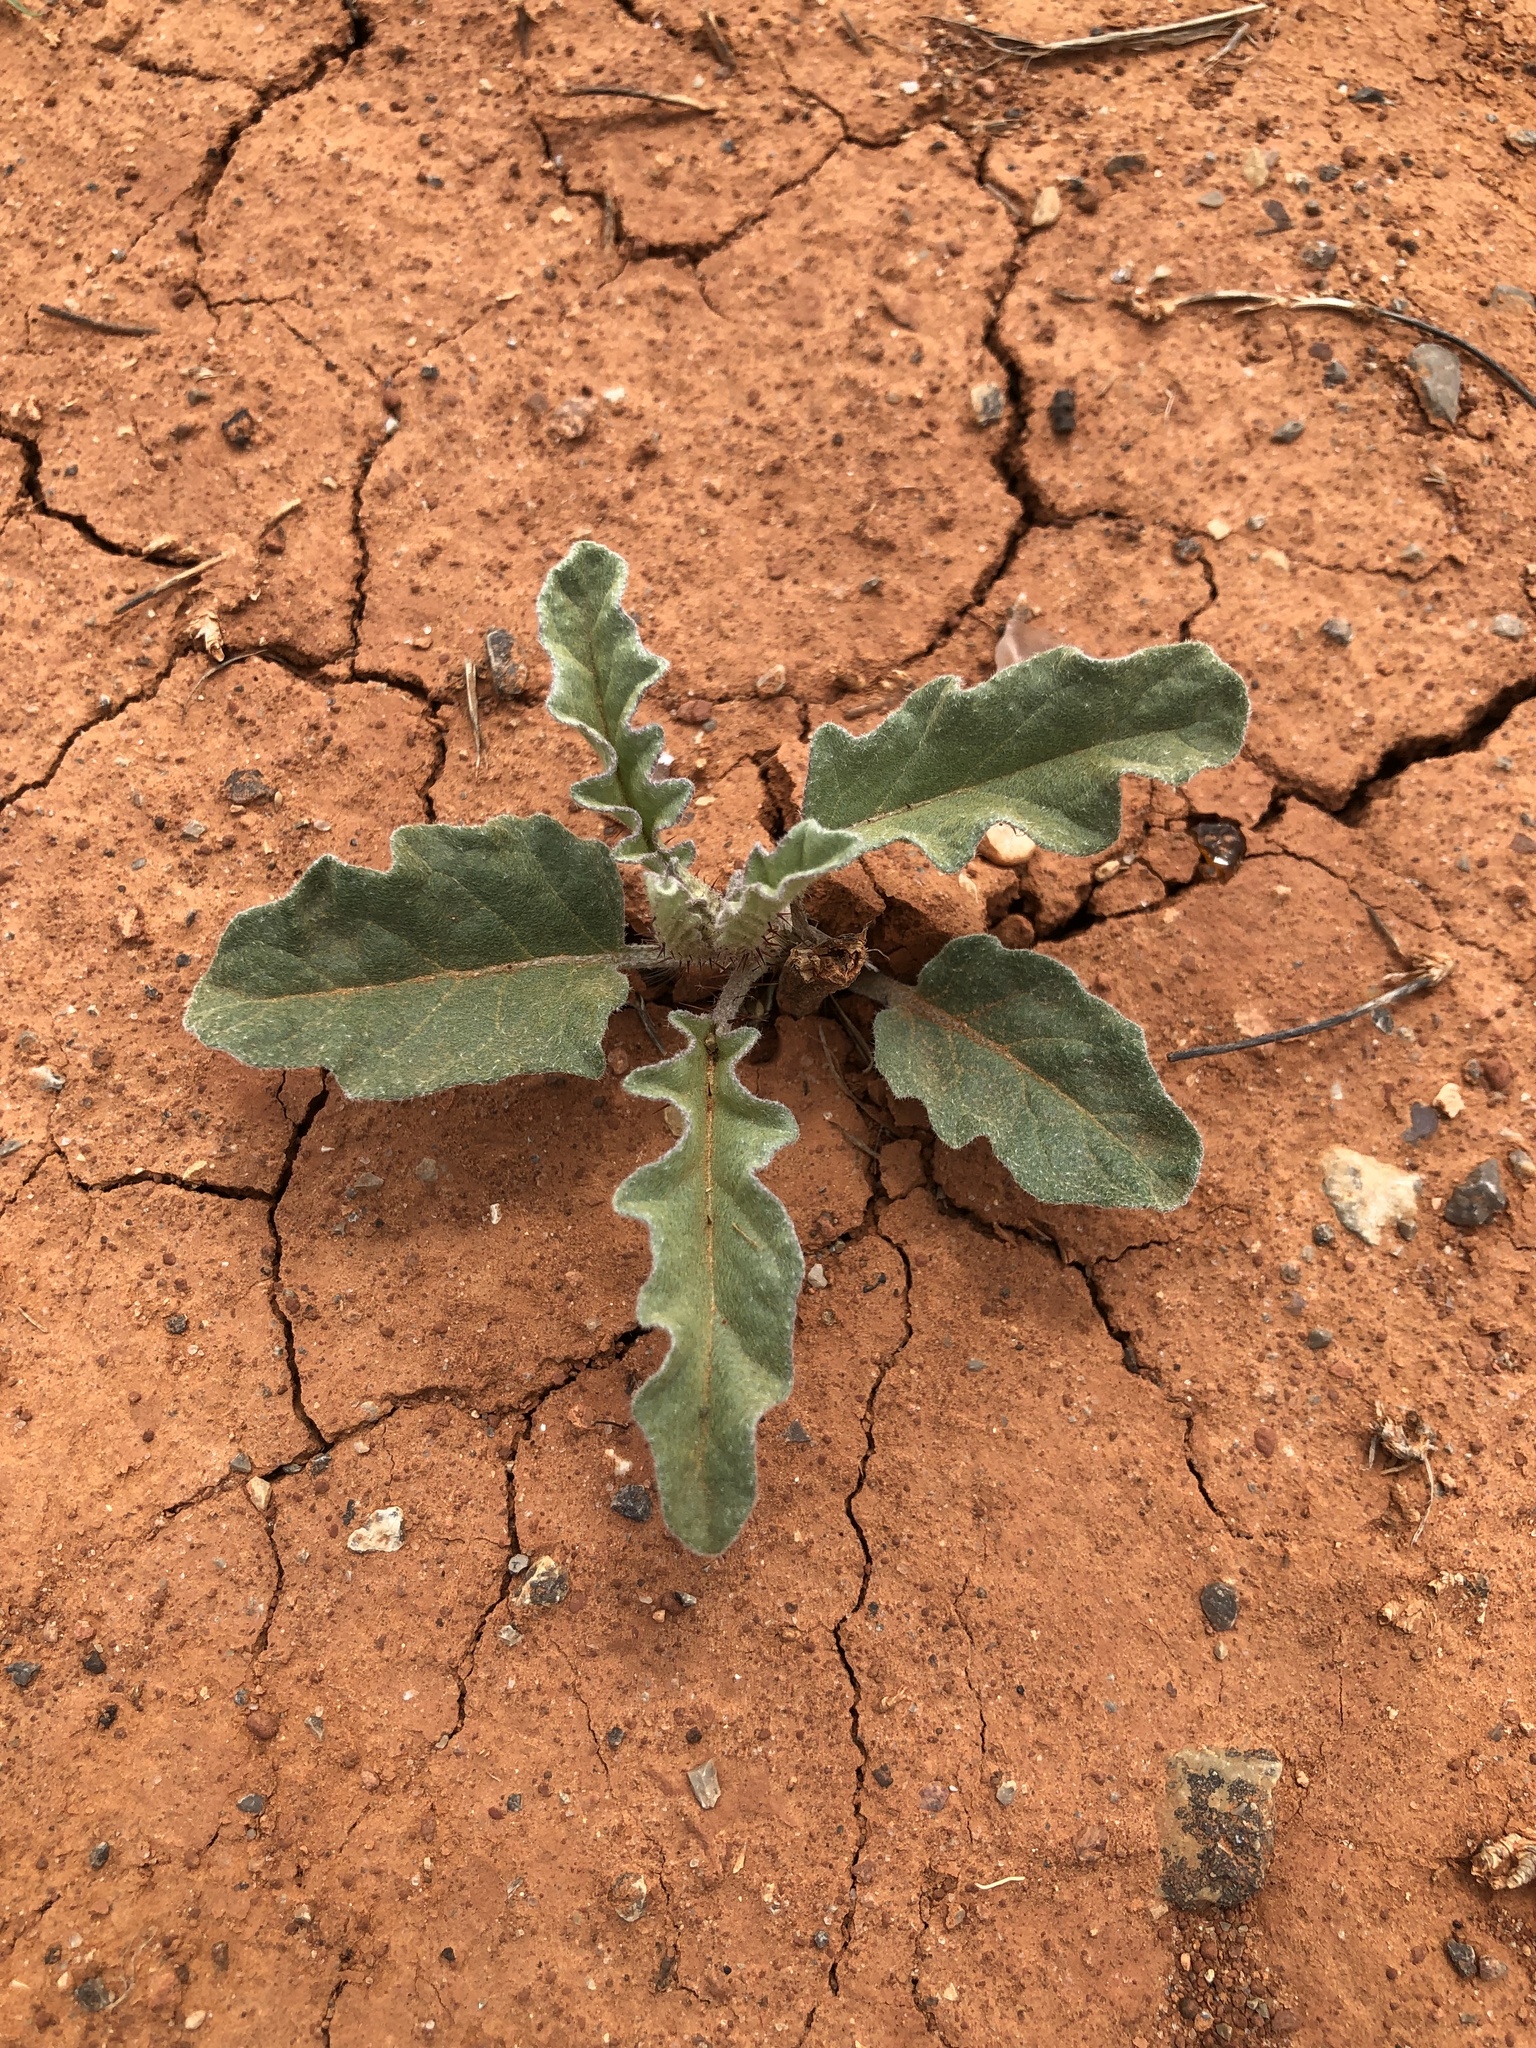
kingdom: Plantae
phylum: Tracheophyta
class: Magnoliopsida
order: Solanales
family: Solanaceae
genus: Solanum
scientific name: Solanum elaeagnifolium
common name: Silverleaf nightshade
